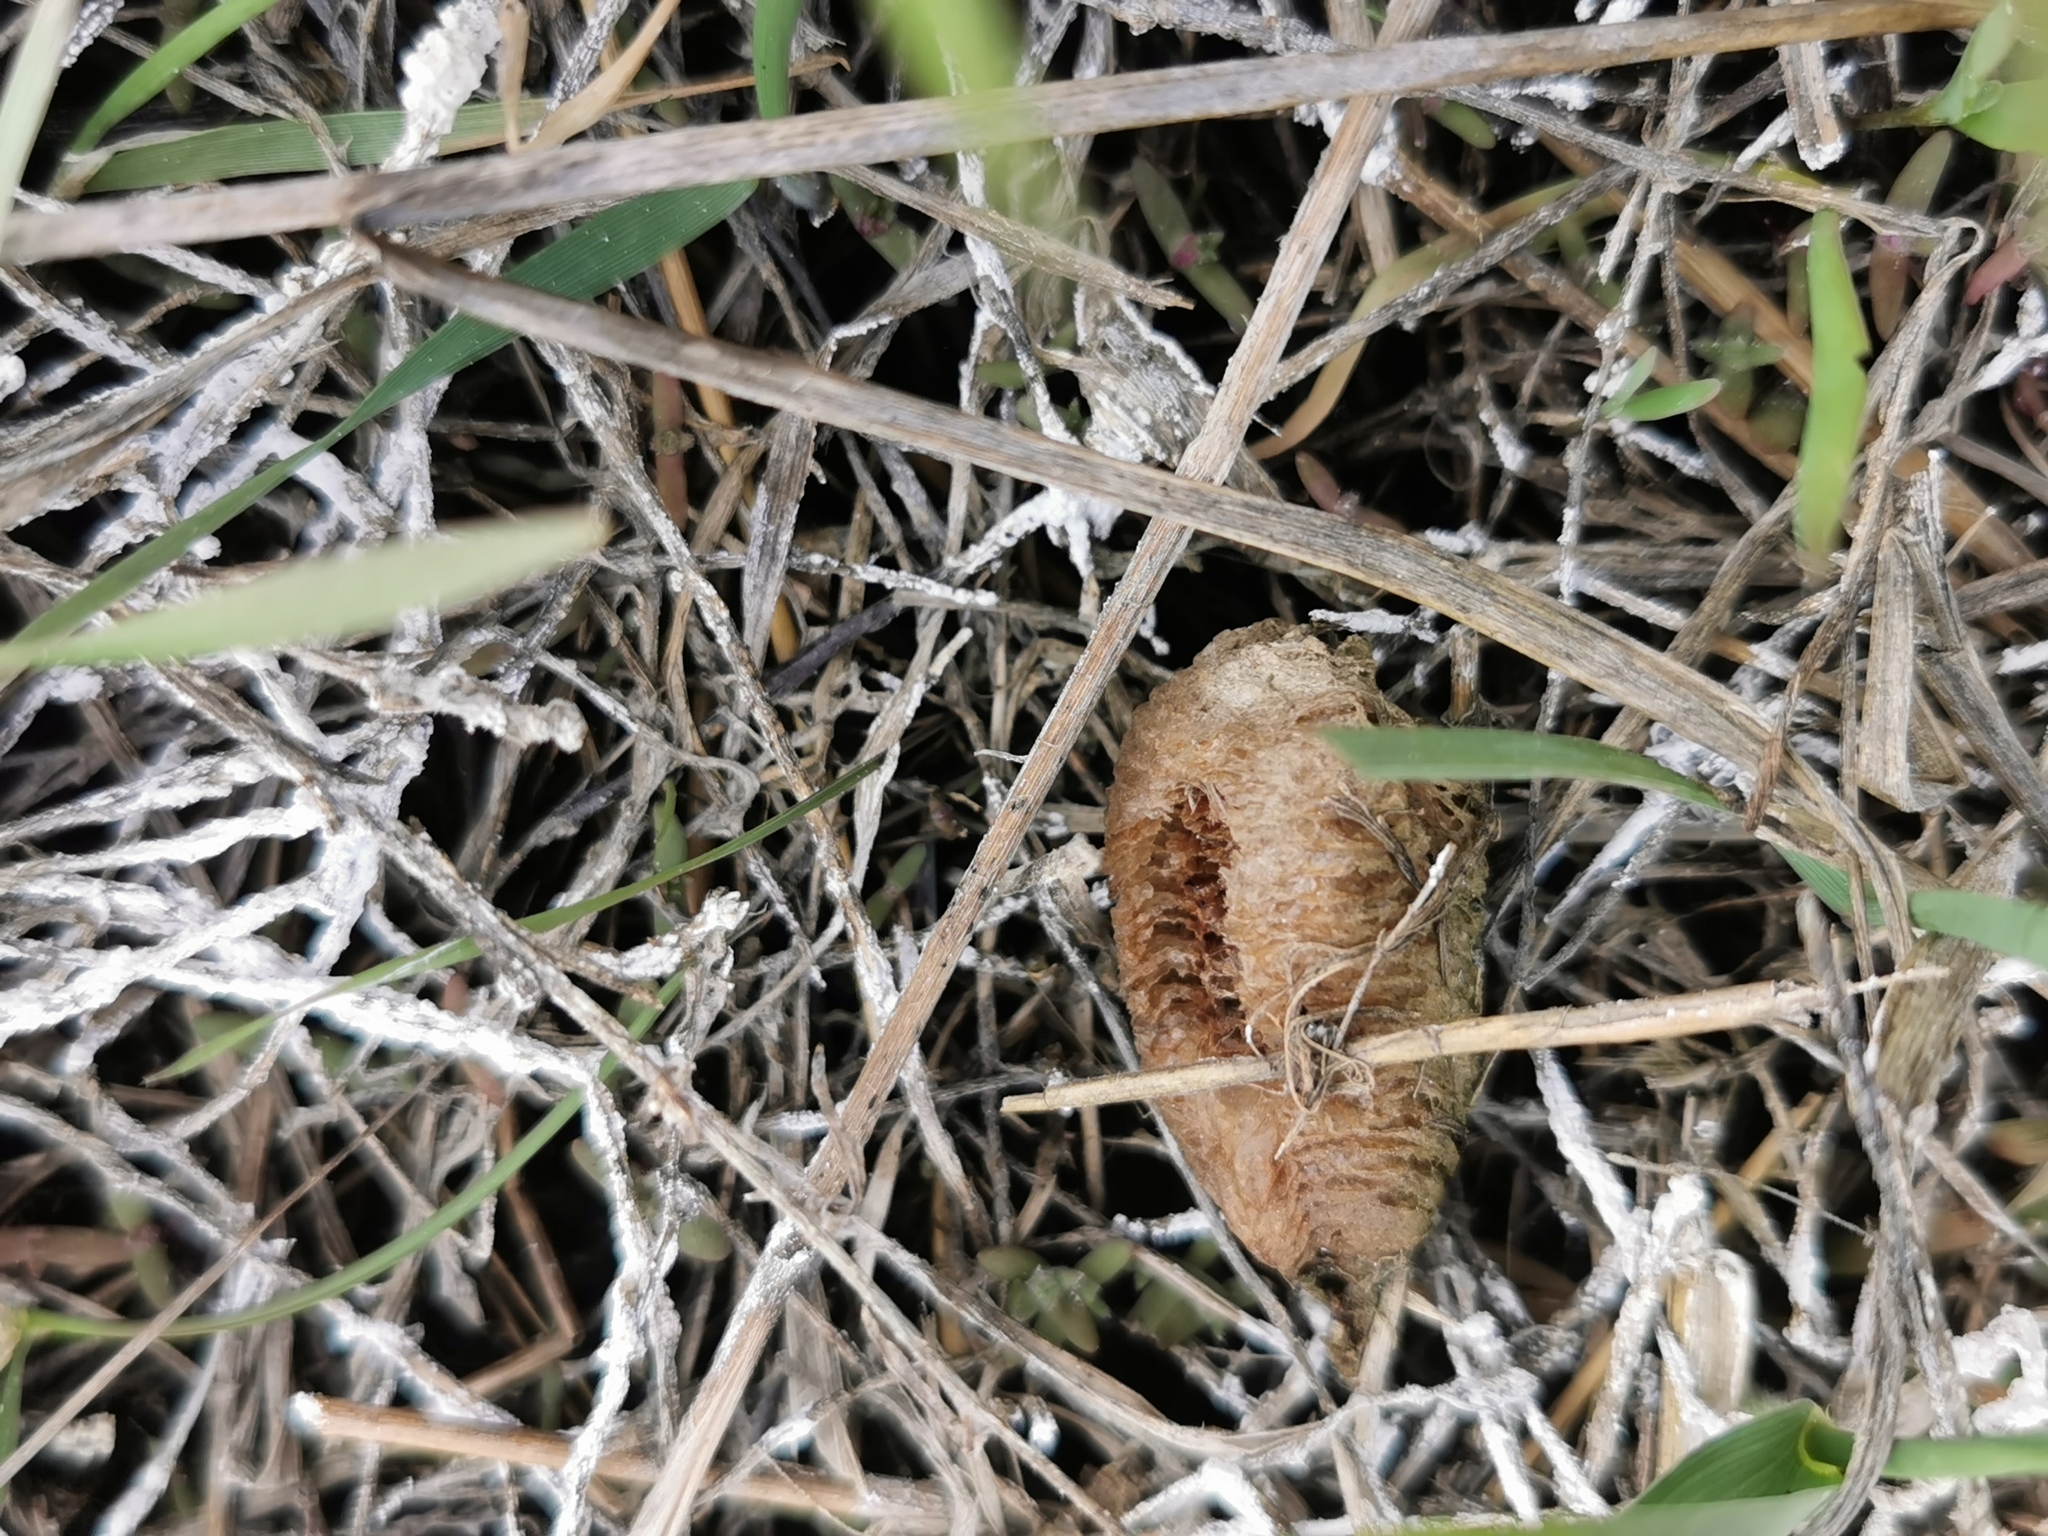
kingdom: Animalia
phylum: Arthropoda
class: Insecta
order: Mantodea
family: Mantidae
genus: Mantis
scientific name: Mantis religiosa
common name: Praying mantis
